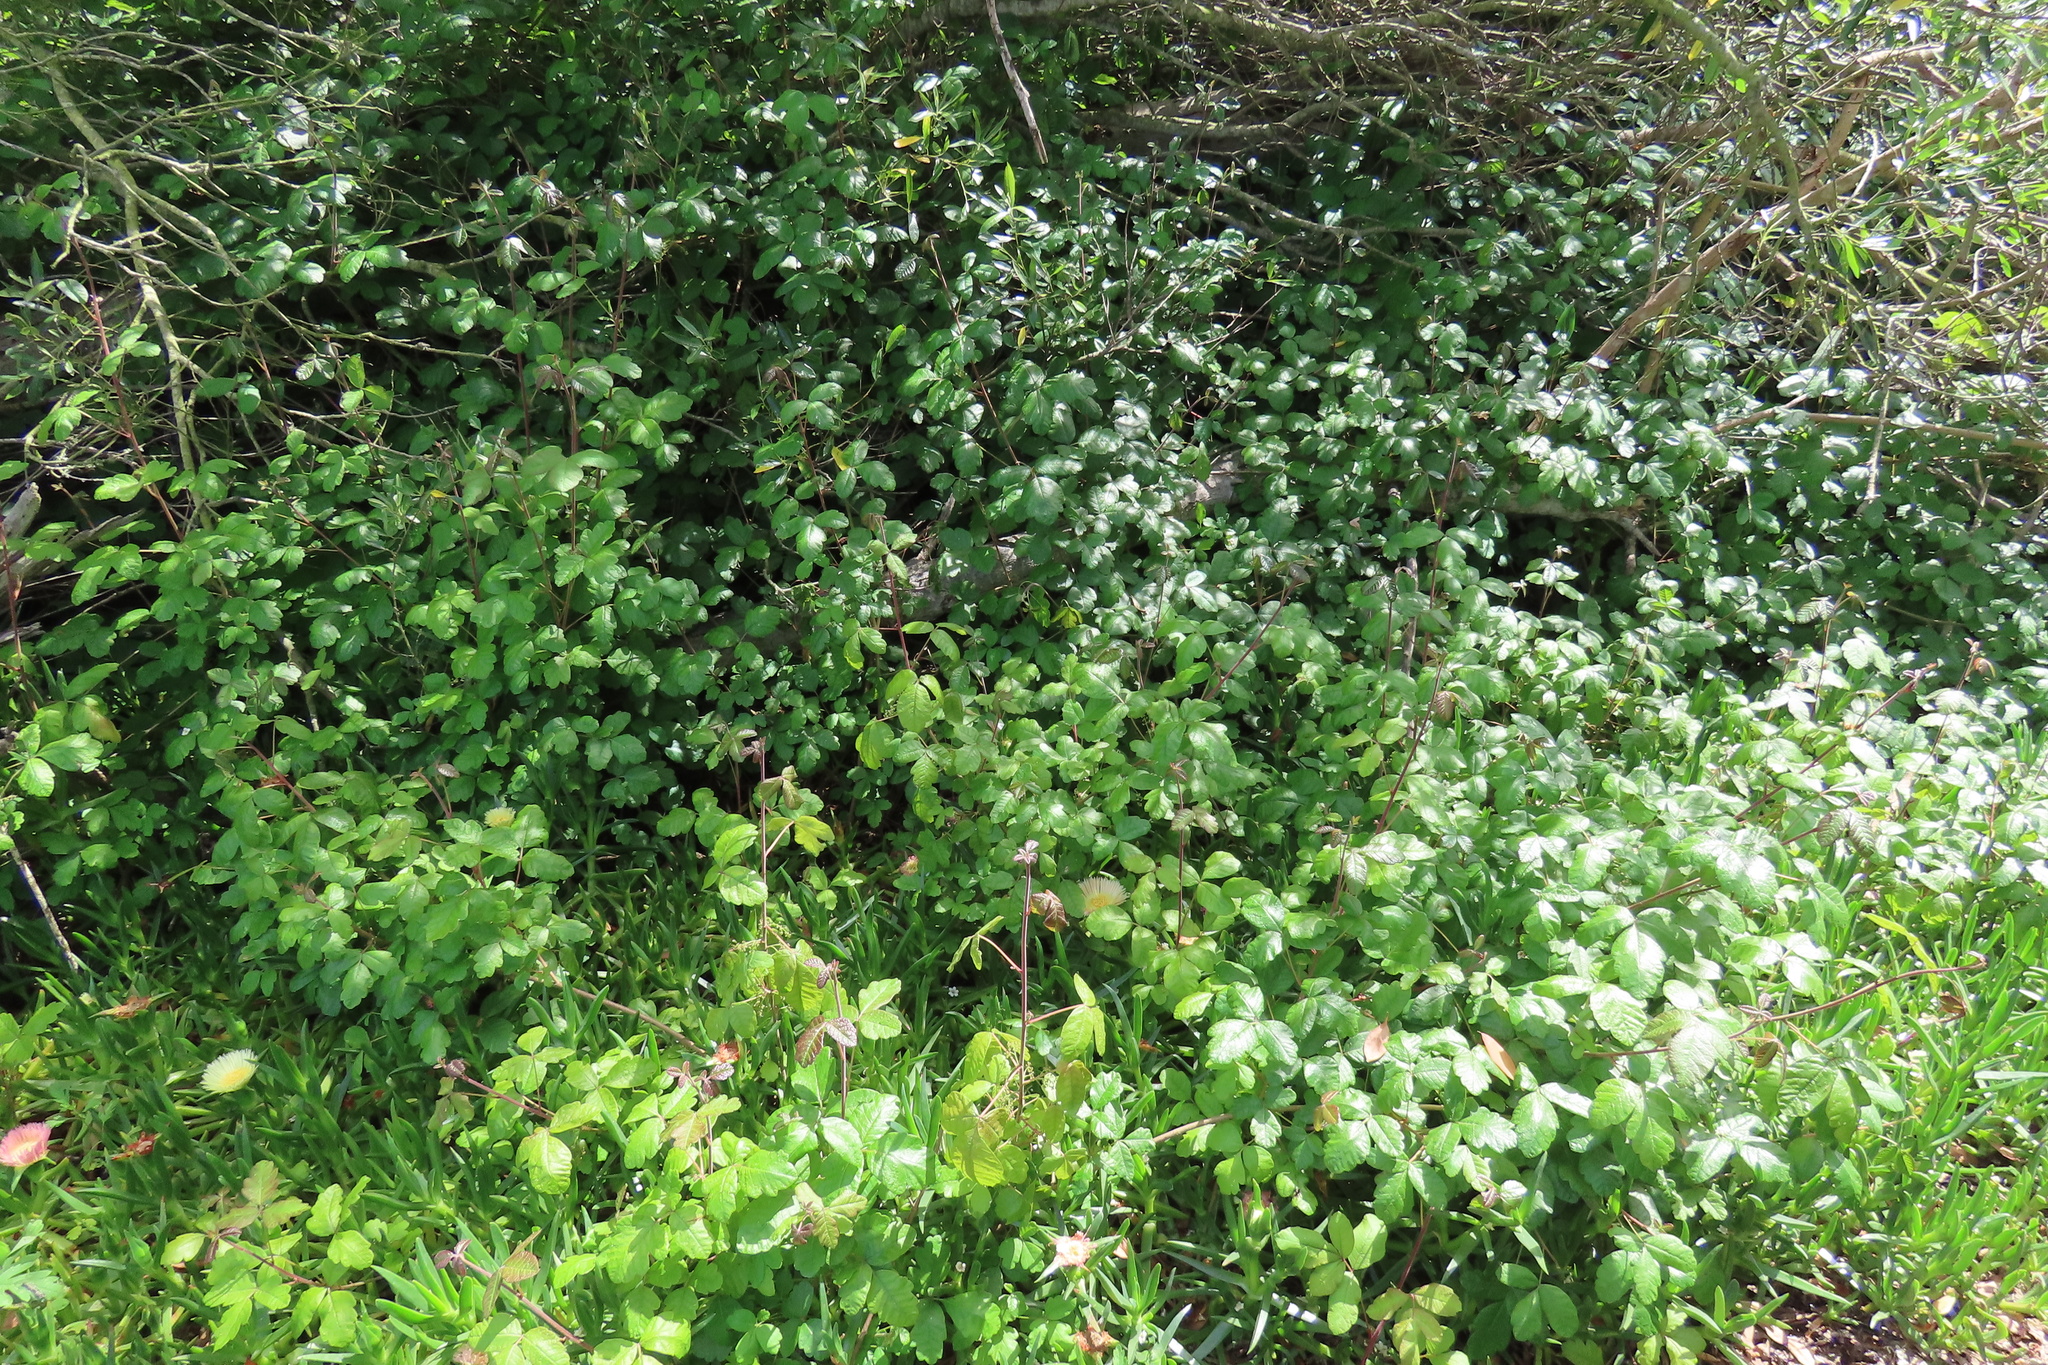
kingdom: Plantae
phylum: Tracheophyta
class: Magnoliopsida
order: Sapindales
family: Anacardiaceae
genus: Toxicodendron
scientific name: Toxicodendron diversilobum
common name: Pacific poison-oak
